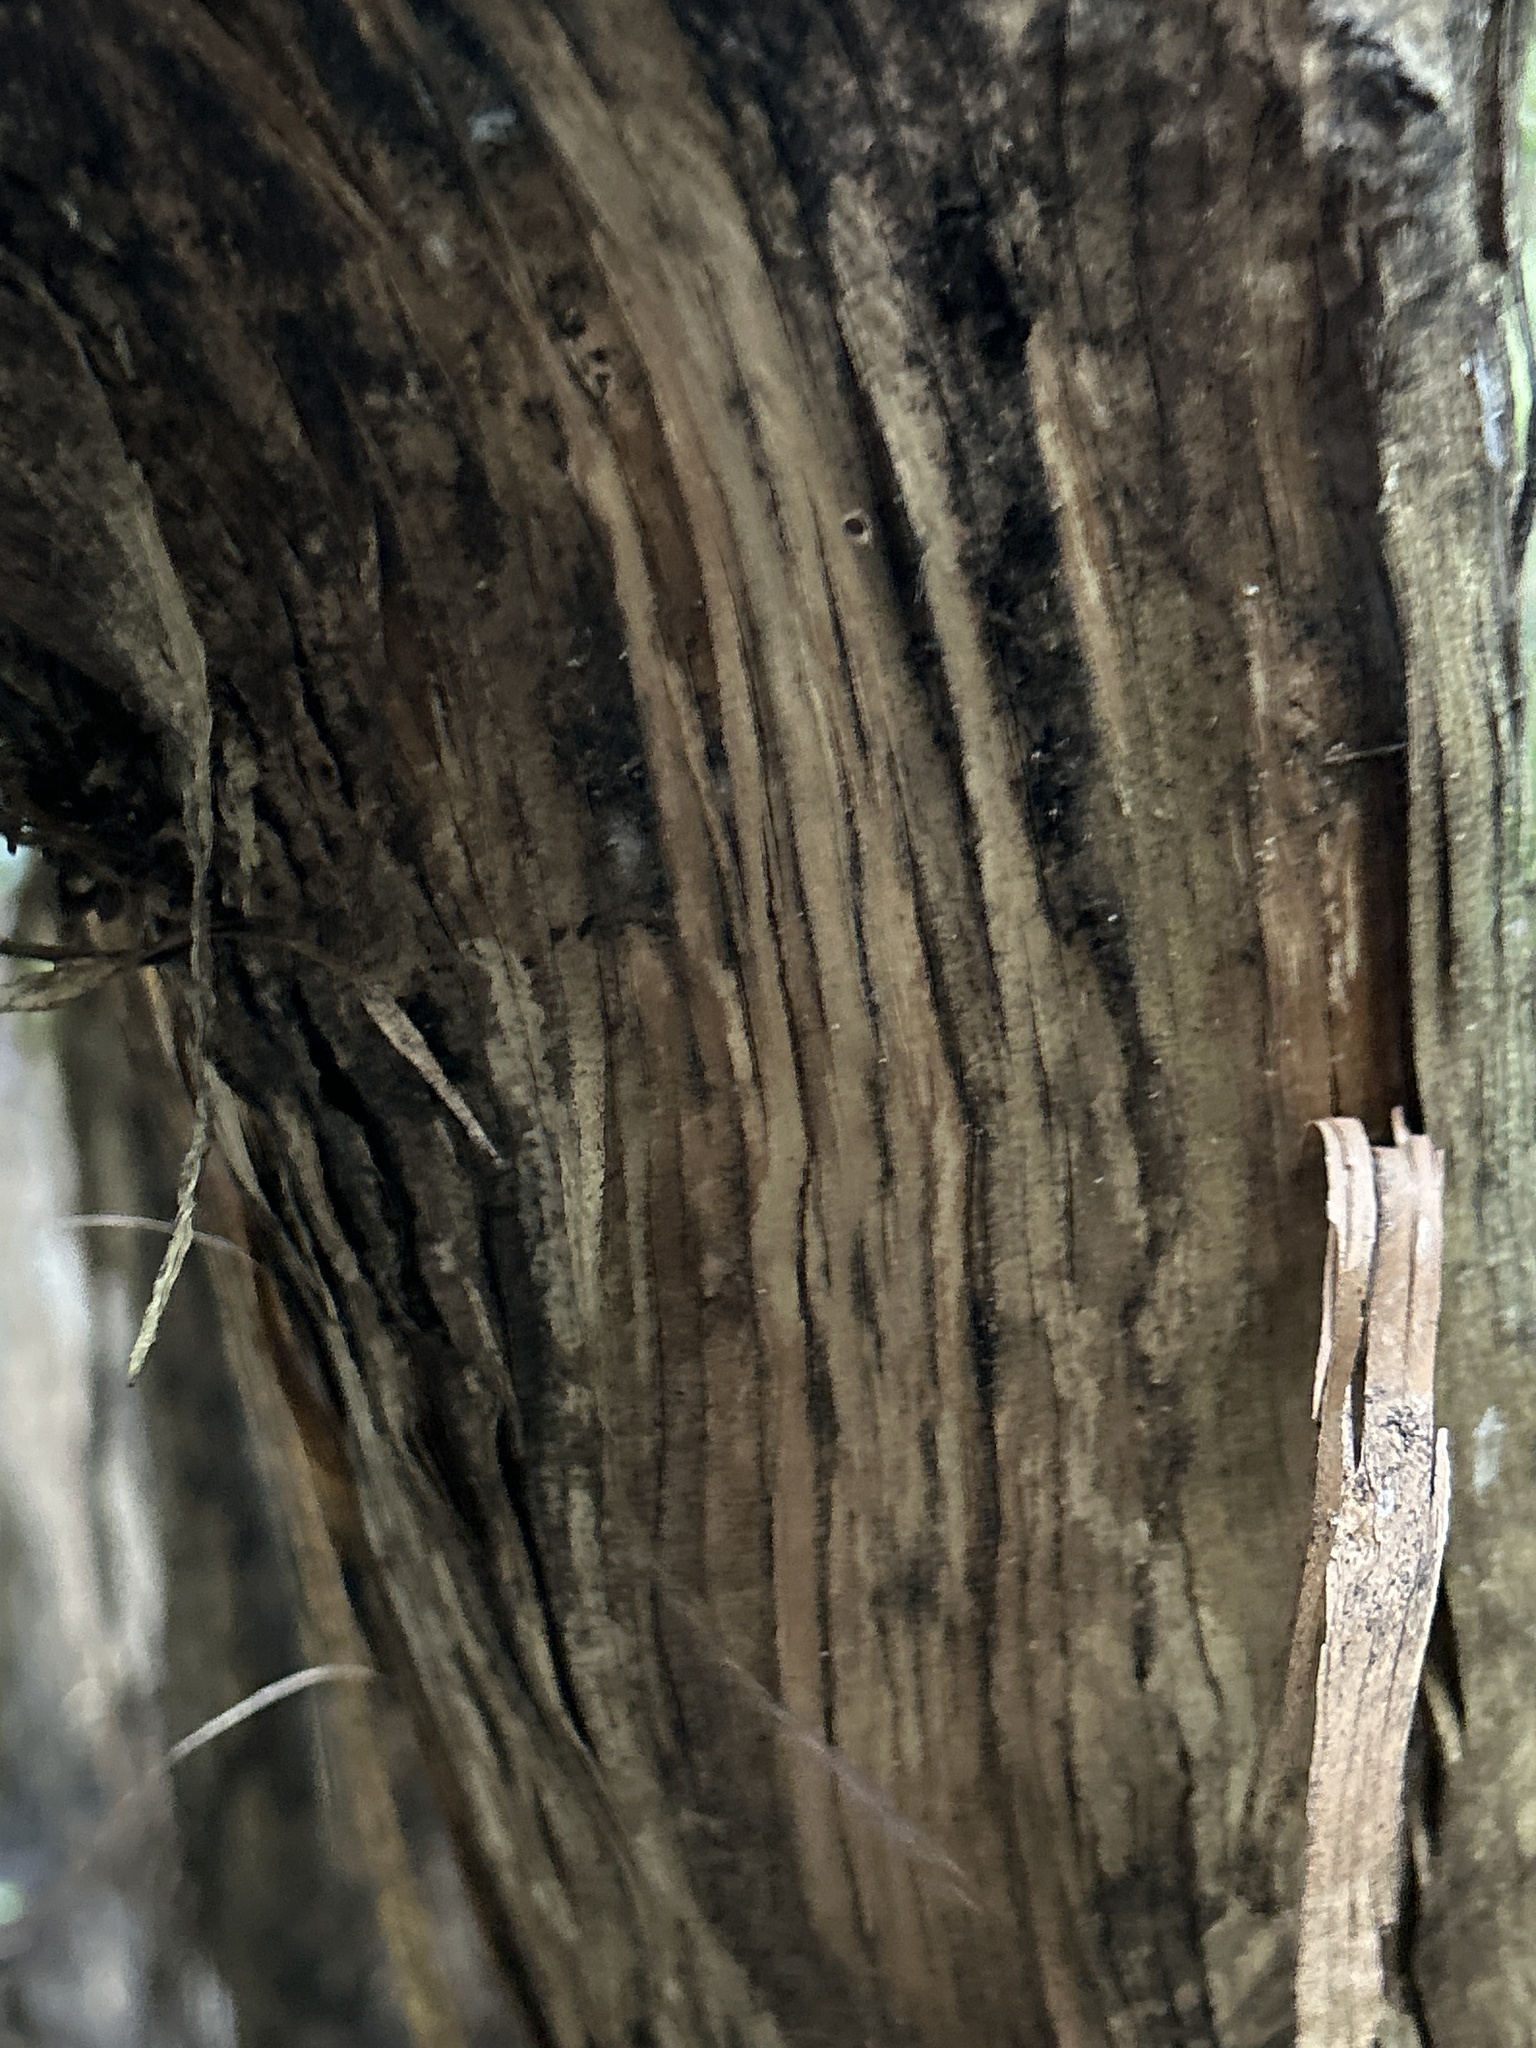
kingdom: Plantae
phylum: Tracheophyta
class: Magnoliopsida
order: Asterales
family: Asteraceae
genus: Olearia
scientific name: Olearia paniculata
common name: Akiraho
